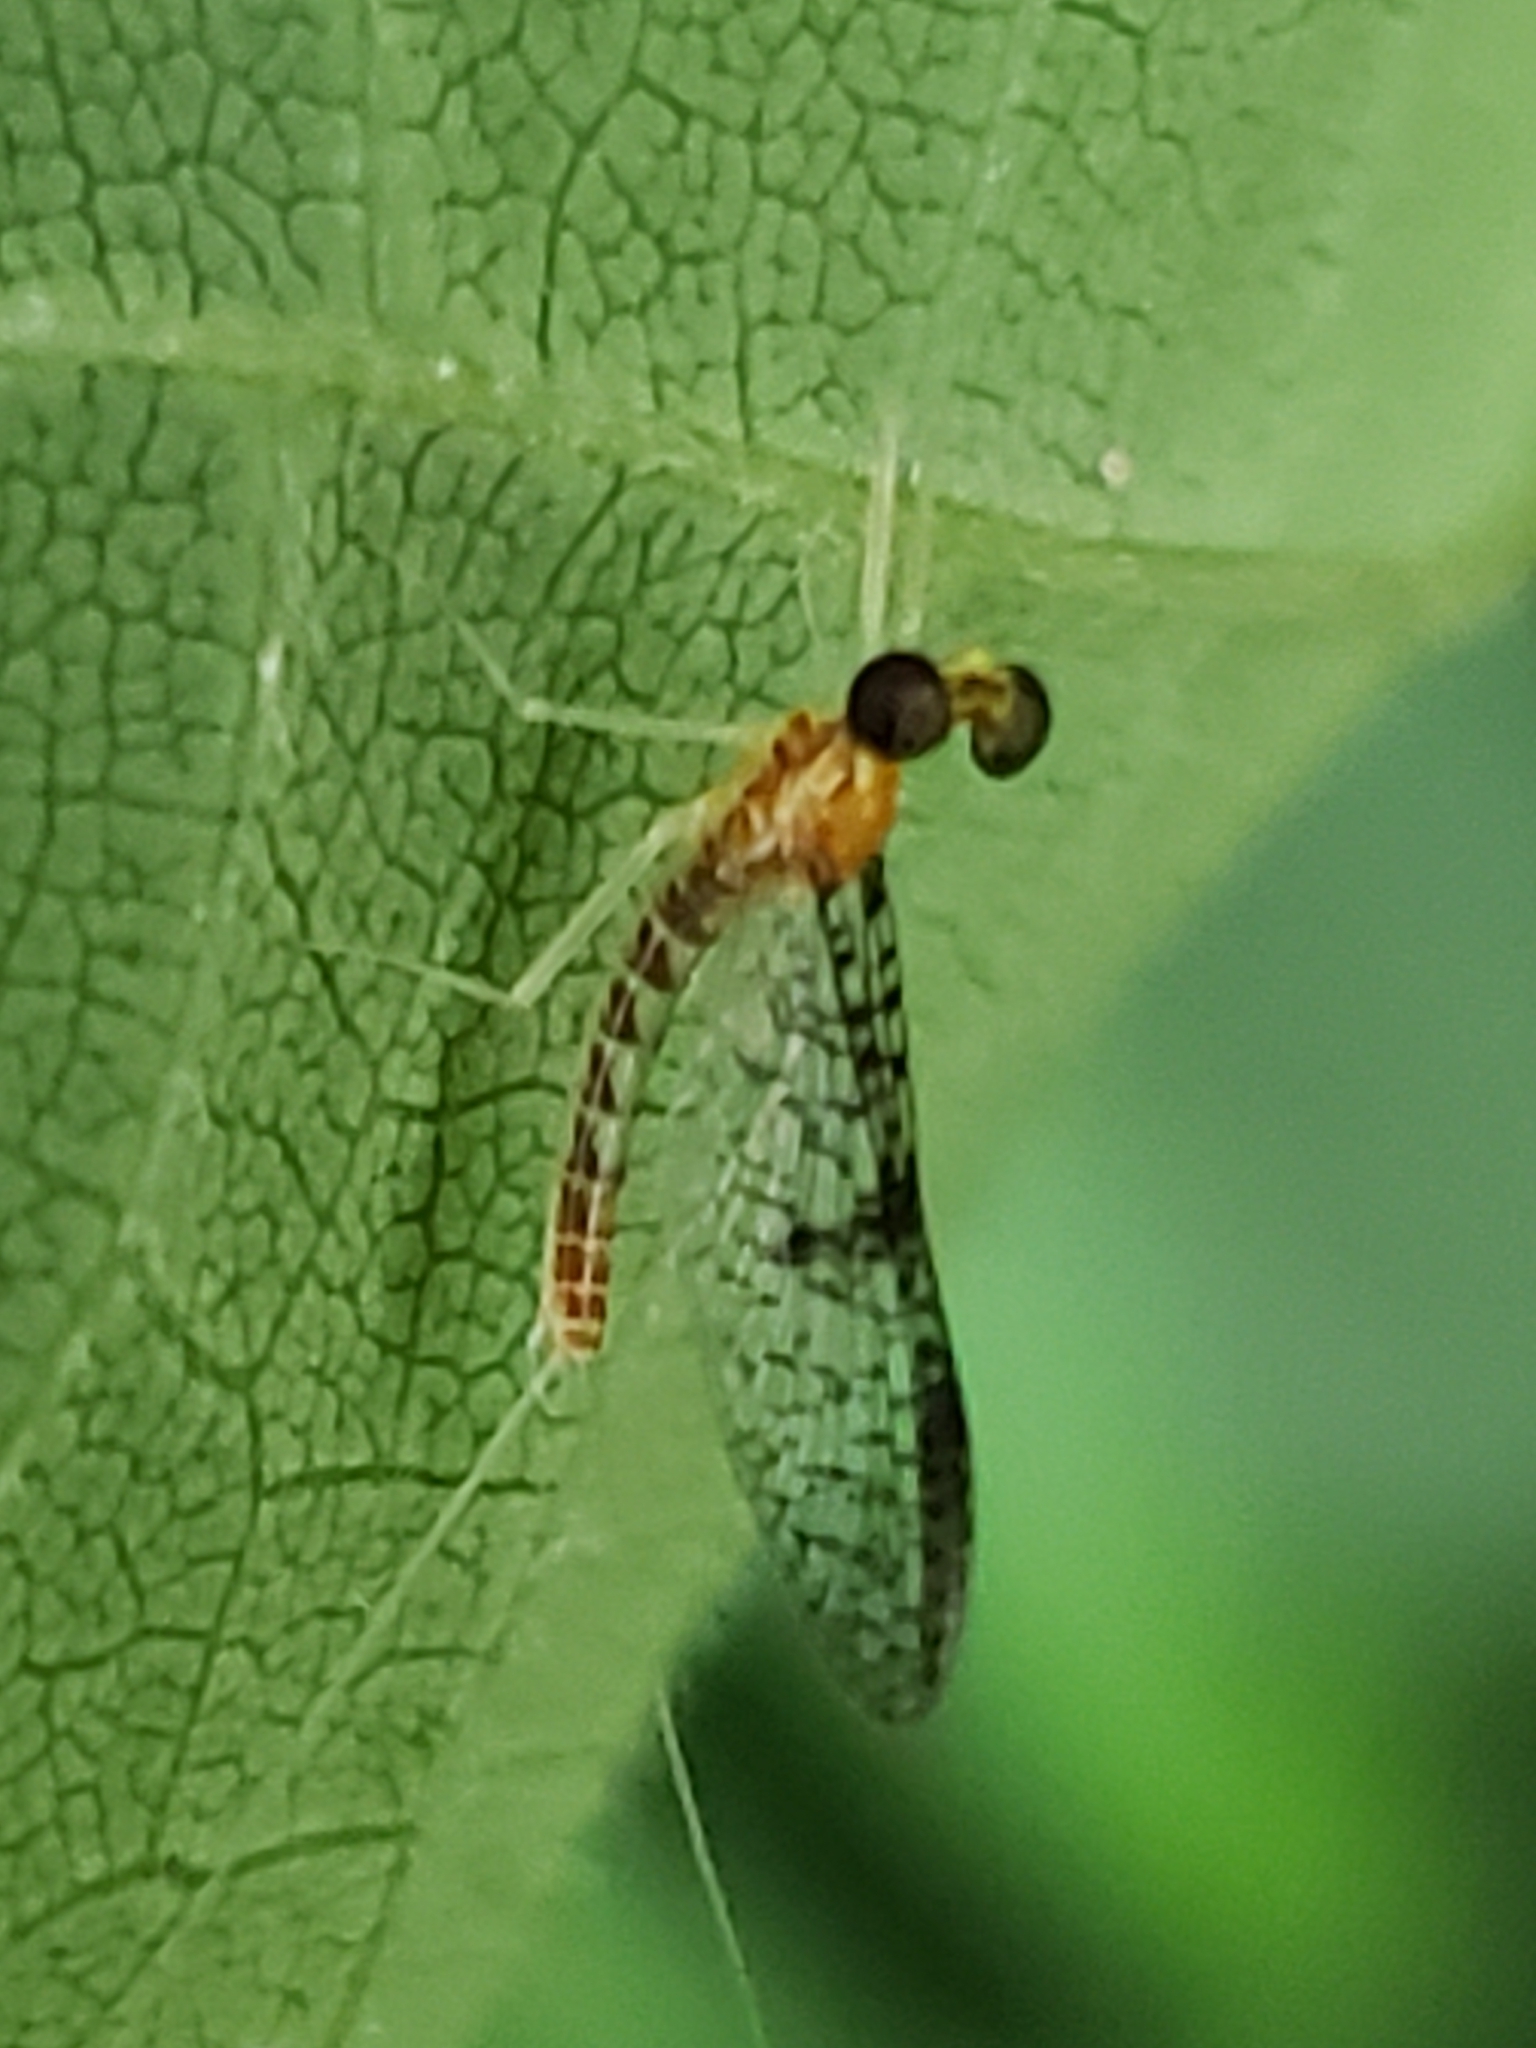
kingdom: Animalia
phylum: Arthropoda
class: Insecta
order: Ephemeroptera
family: Heptageniidae
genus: Leucrocuta
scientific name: Leucrocuta aphrodite
